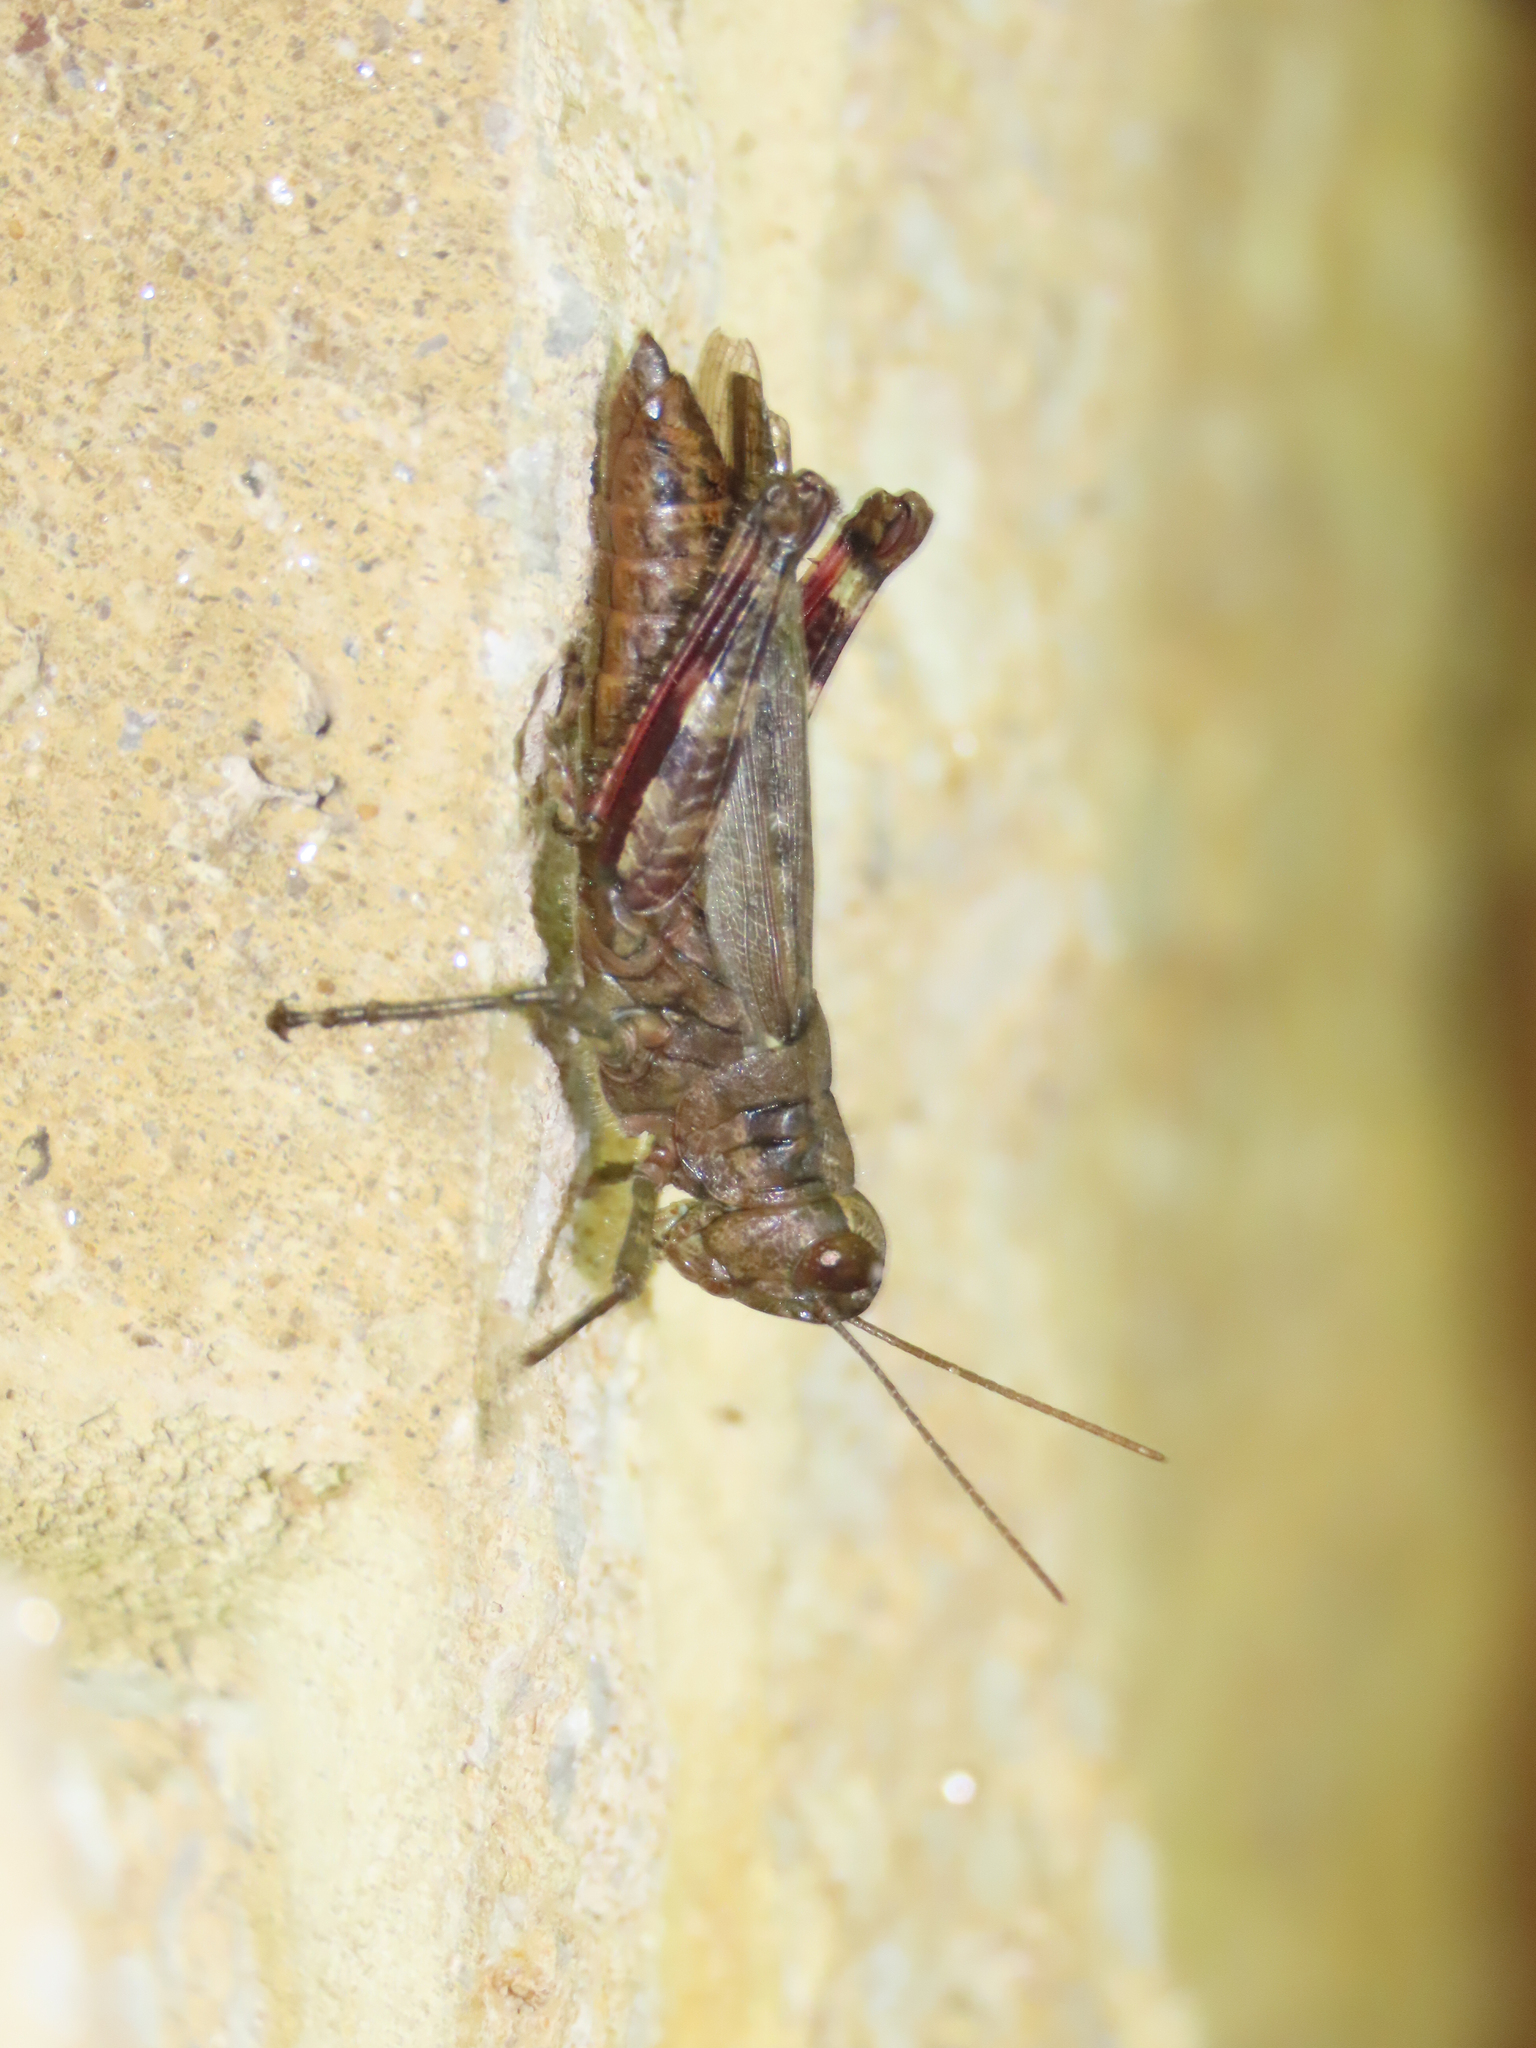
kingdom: Animalia
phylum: Arthropoda
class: Insecta
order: Orthoptera
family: Acrididae
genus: Melanoplus
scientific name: Melanoplus punctulatus
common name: Pine-tree spur-throat grasshopper
